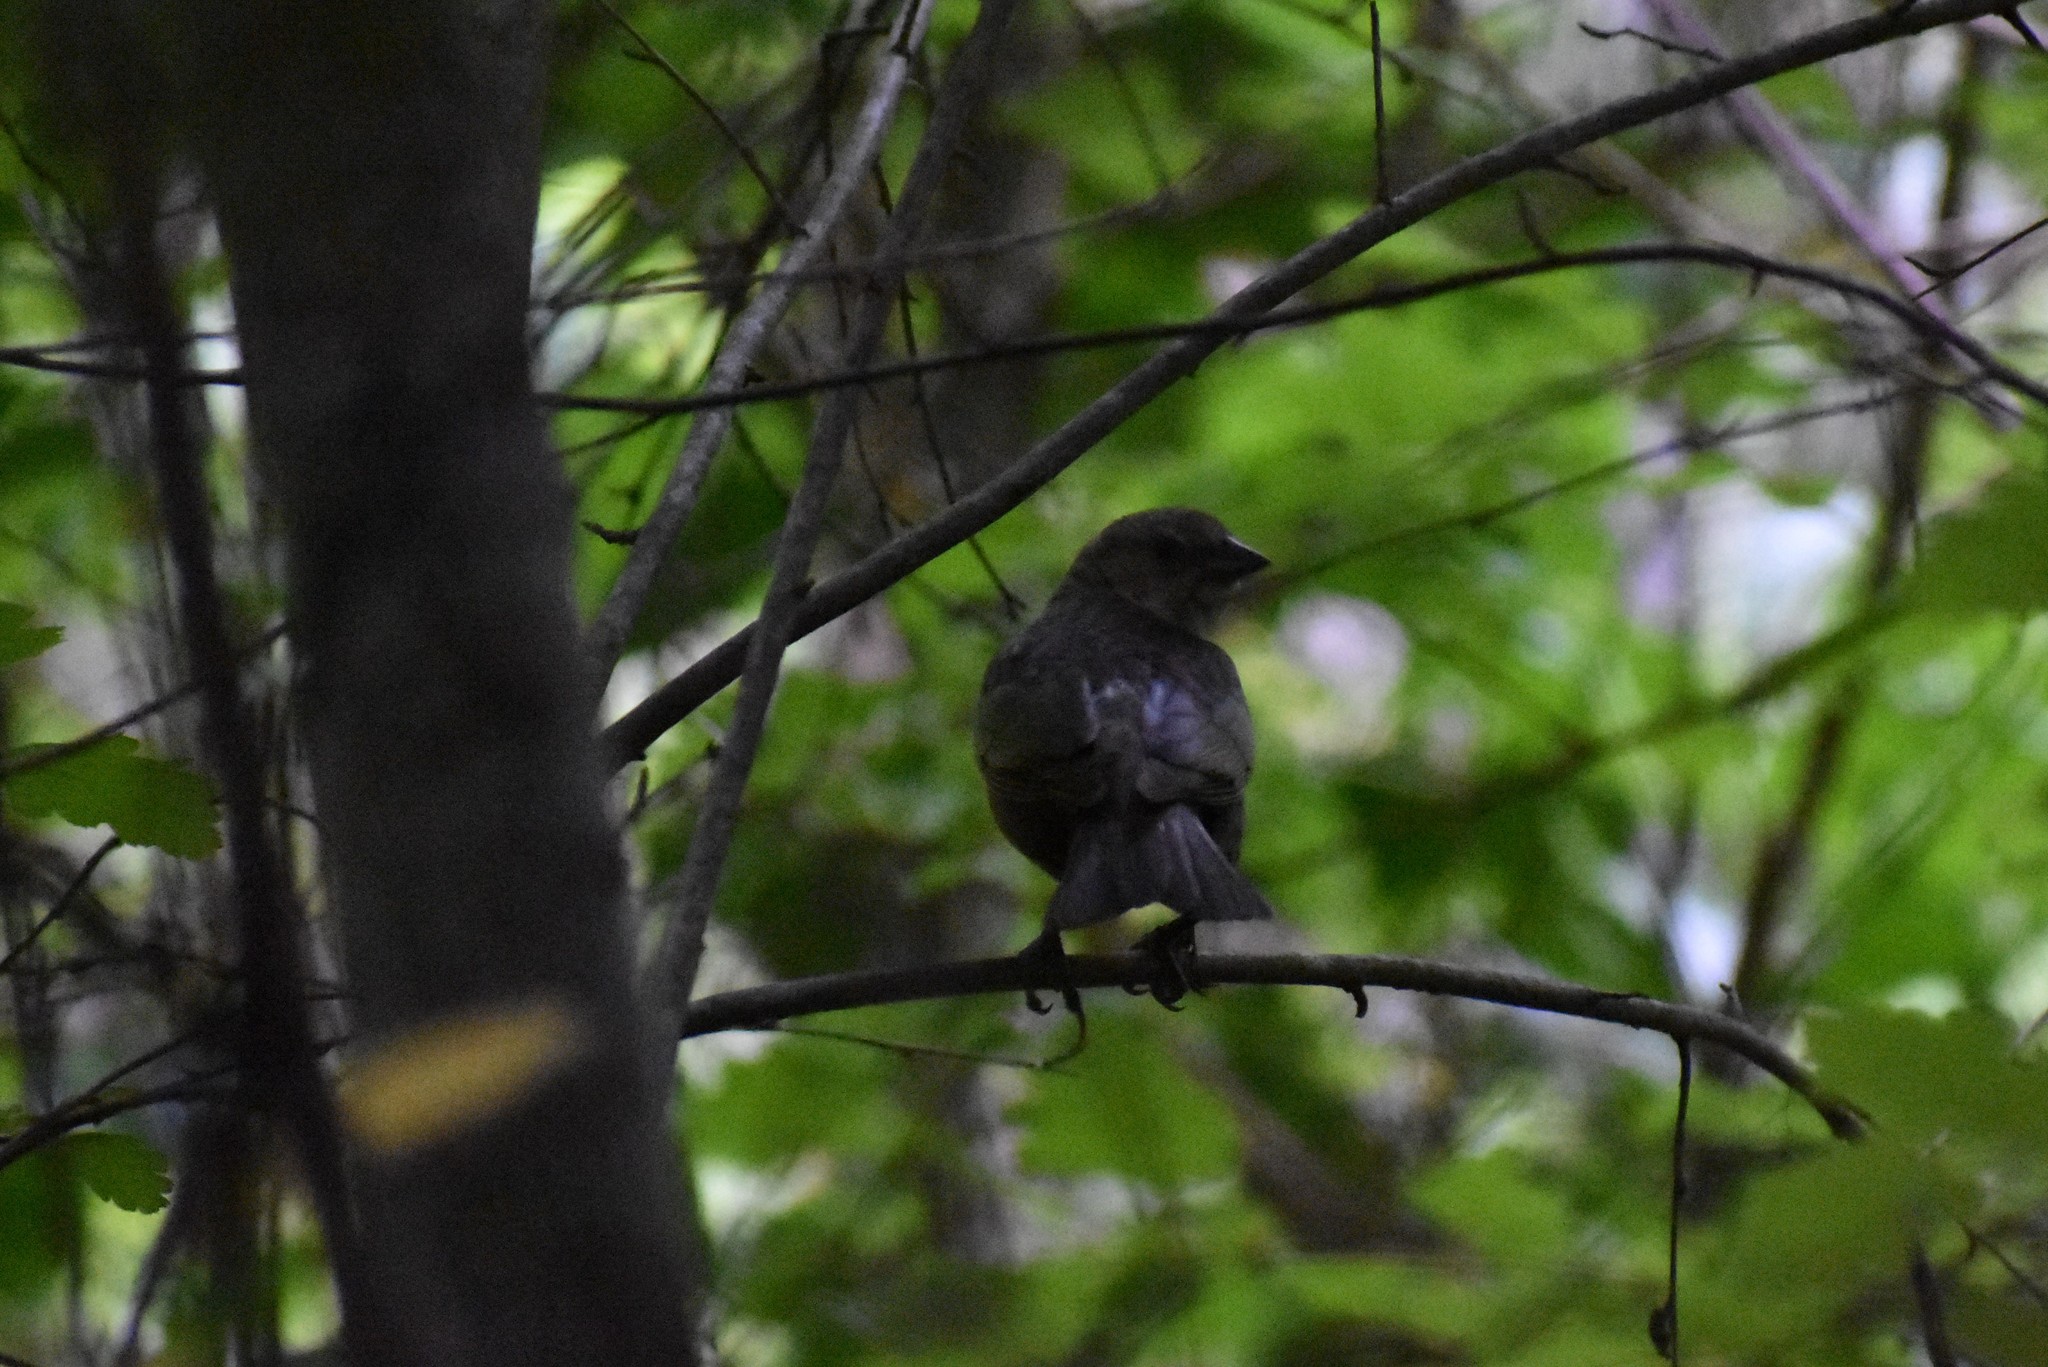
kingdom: Animalia
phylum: Chordata
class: Aves
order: Passeriformes
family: Icteridae
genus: Molothrus
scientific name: Molothrus ater
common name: Brown-headed cowbird
